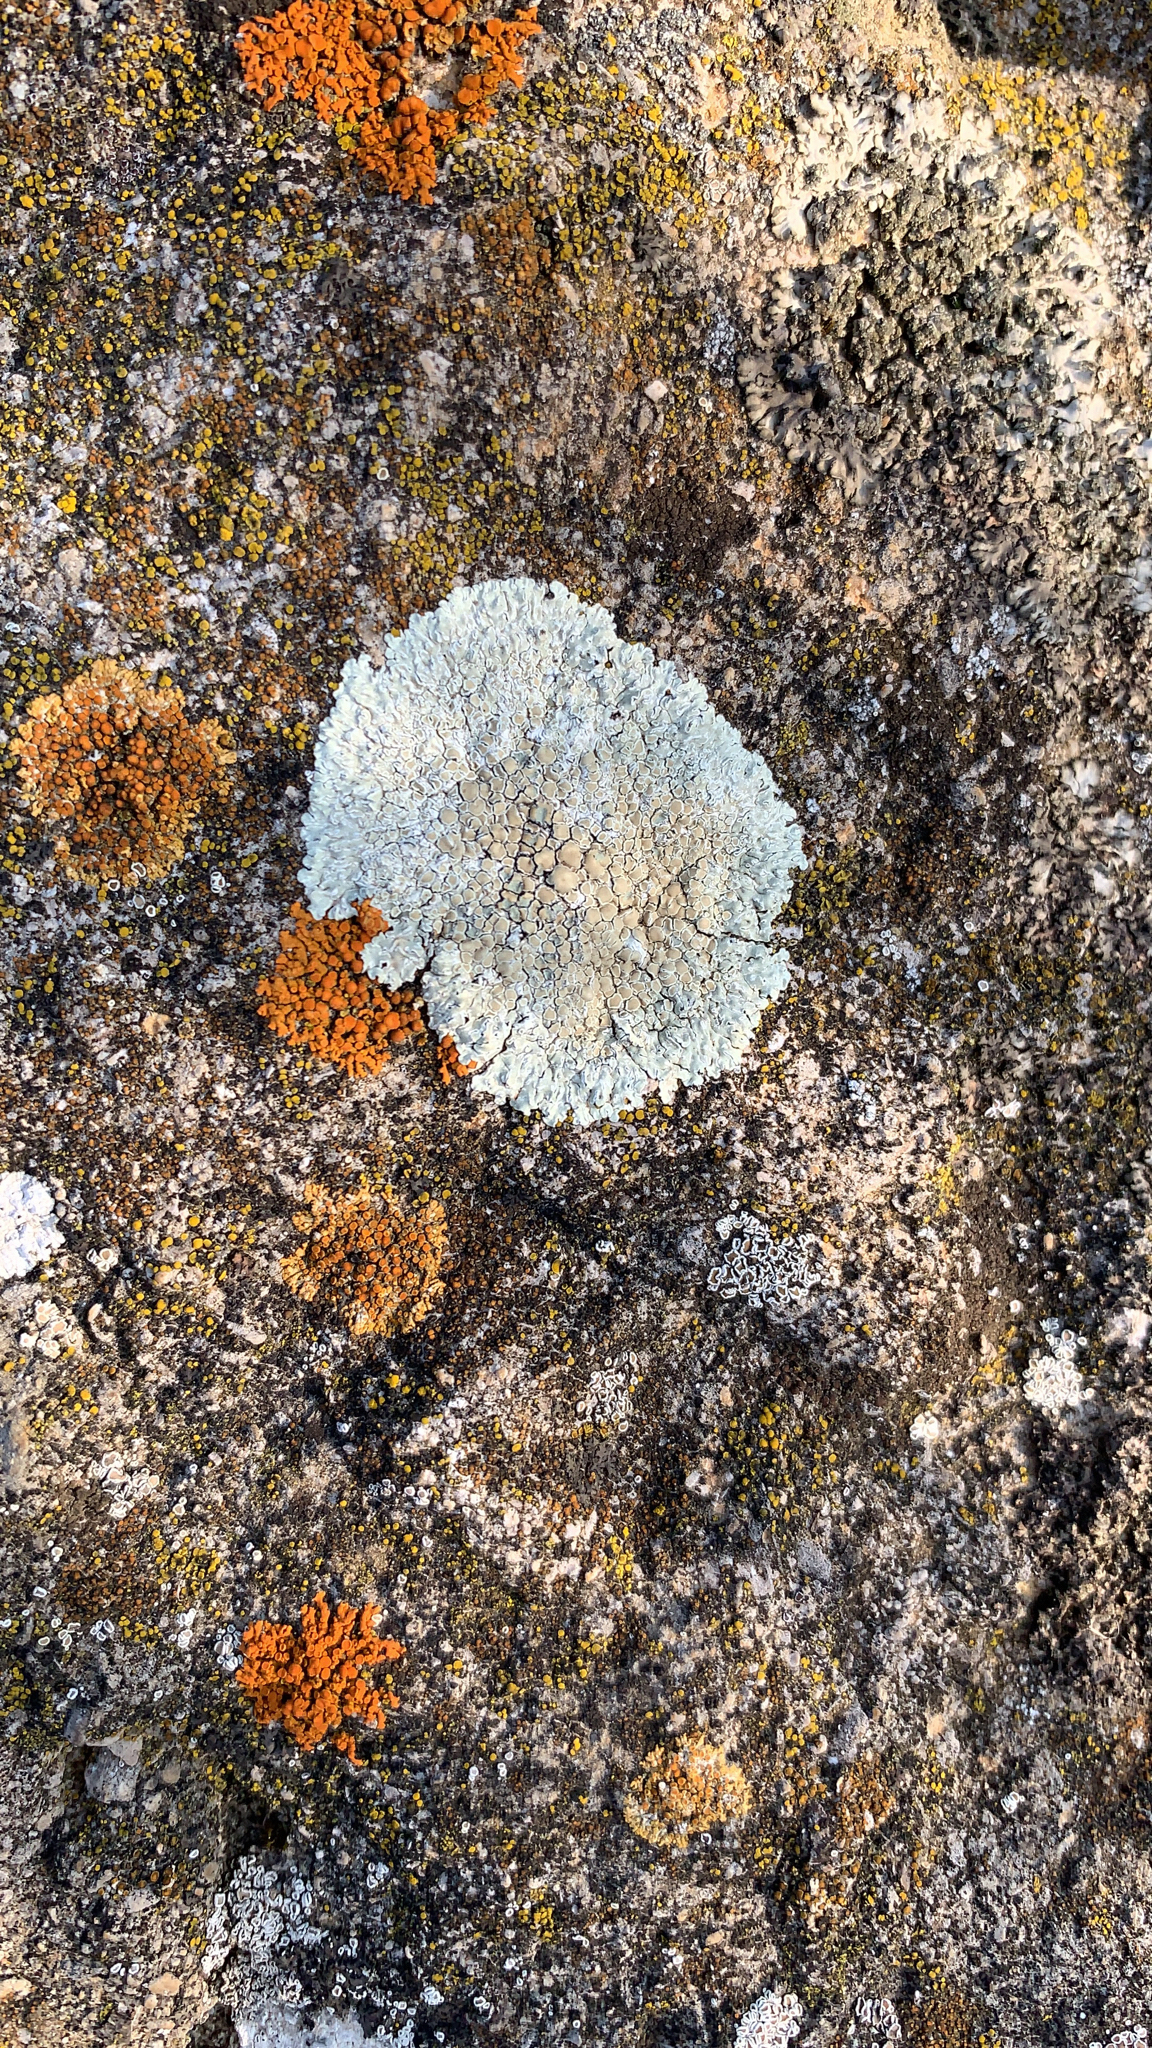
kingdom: Fungi
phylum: Ascomycota
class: Lecanoromycetes
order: Lecanorales
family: Lecanoraceae
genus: Protoparmeliopsis
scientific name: Protoparmeliopsis muralis
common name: Stonewall rim lichen
